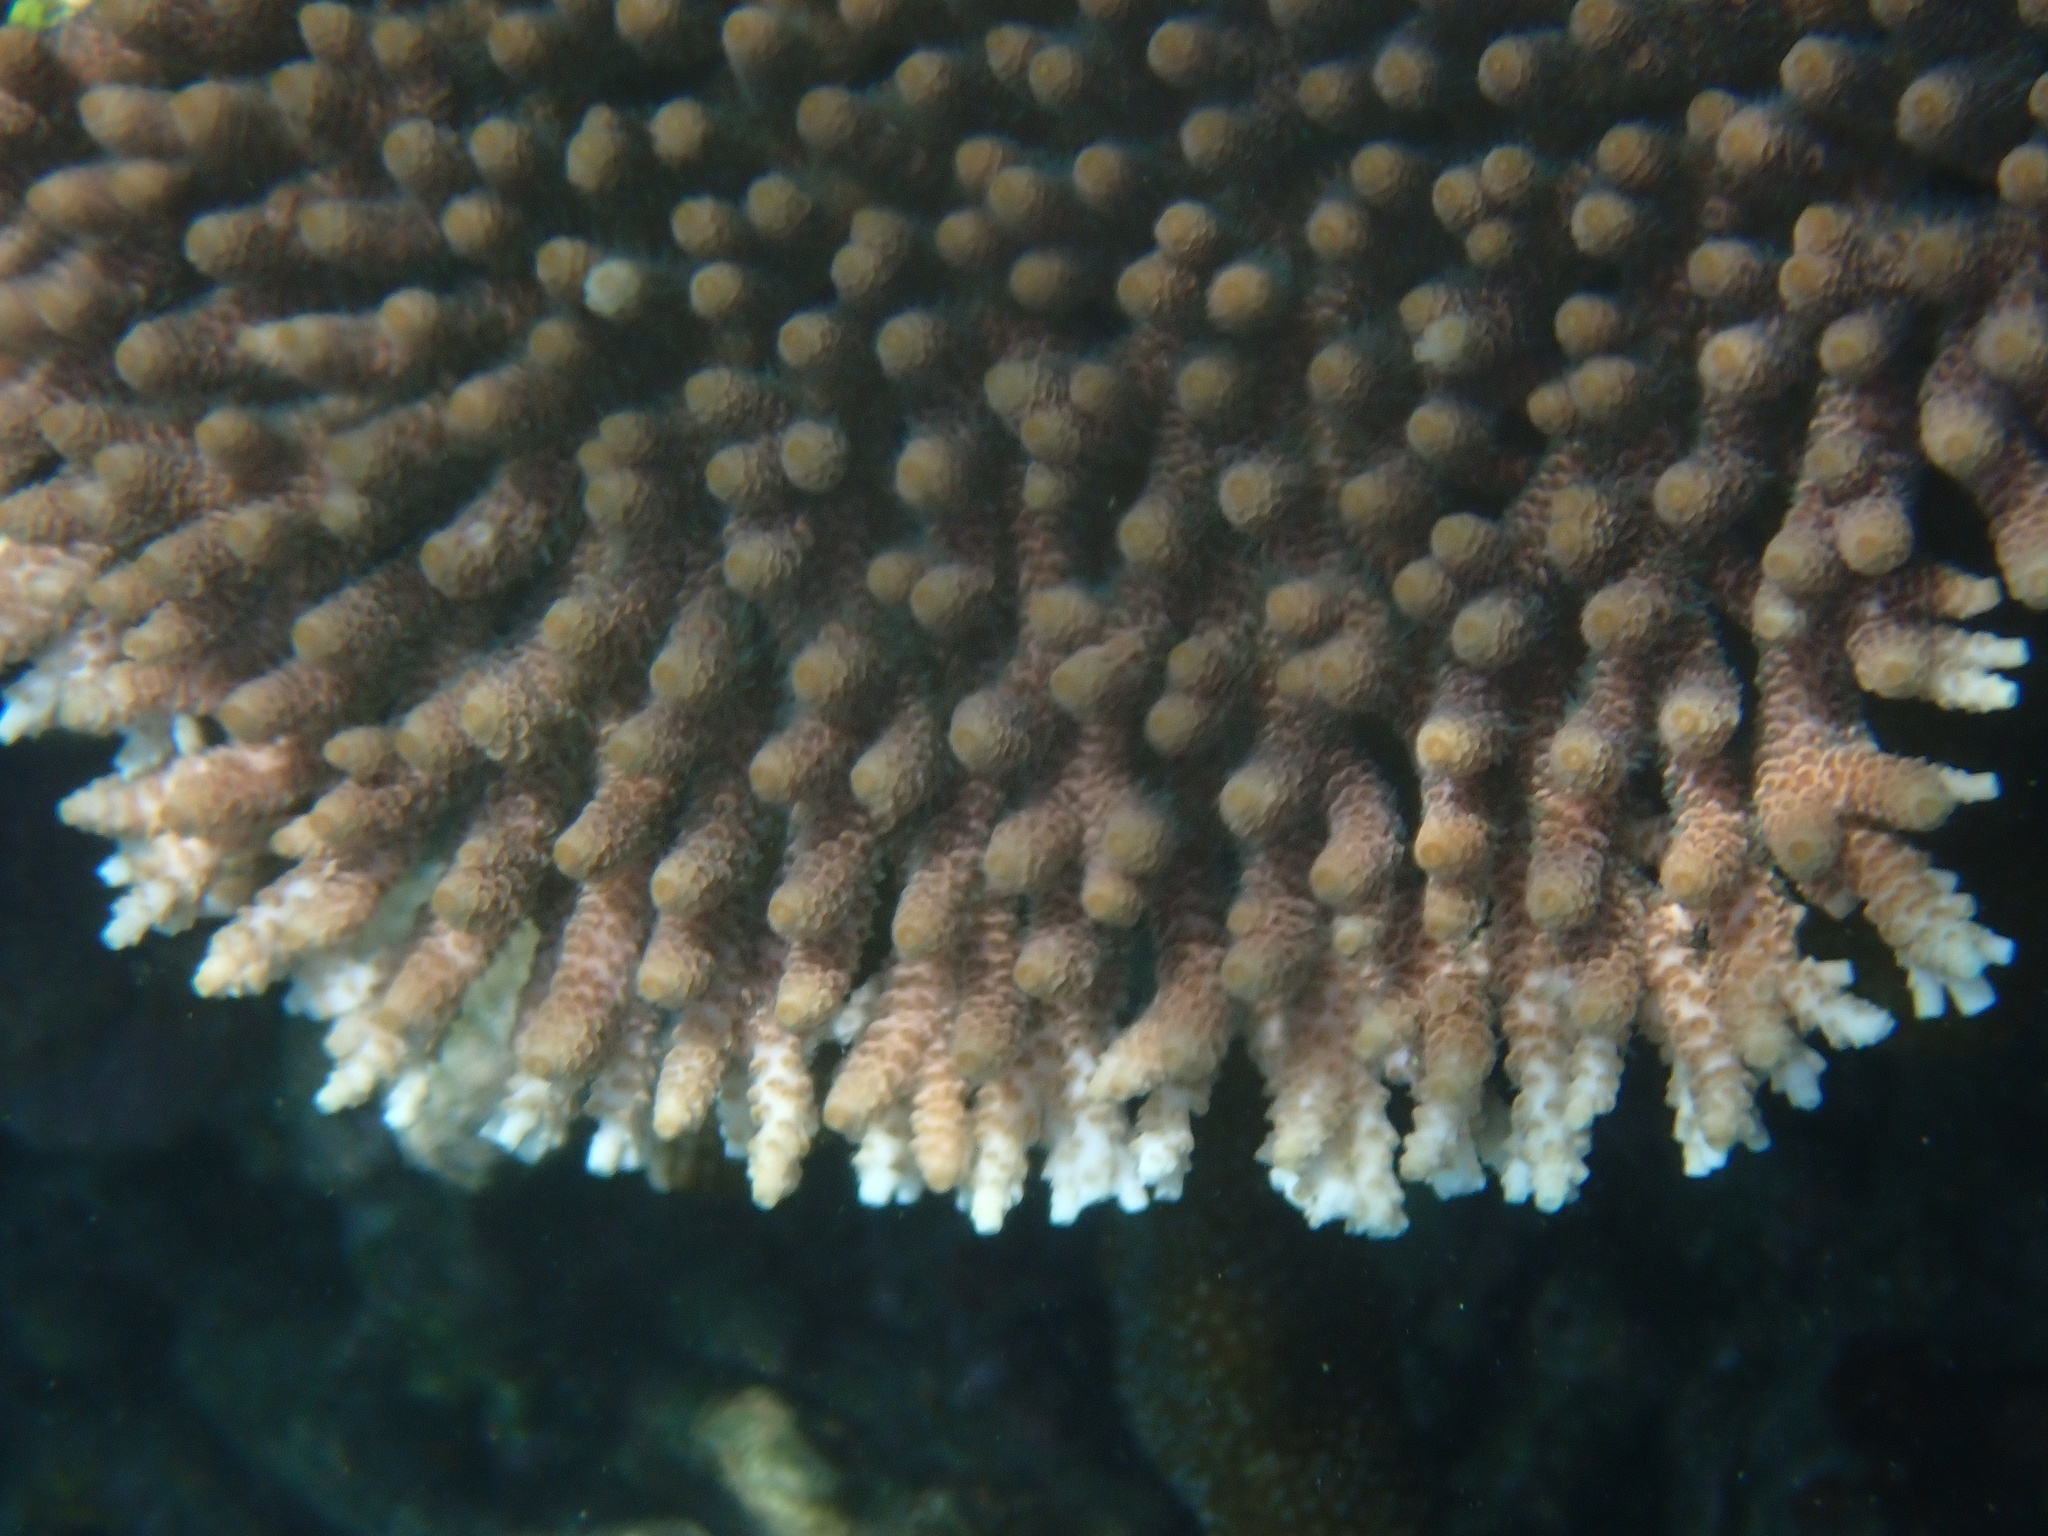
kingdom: Animalia
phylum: Cnidaria
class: Anthozoa
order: Scleractinia
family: Acroporidae
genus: Acropora
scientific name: Acropora millepora
